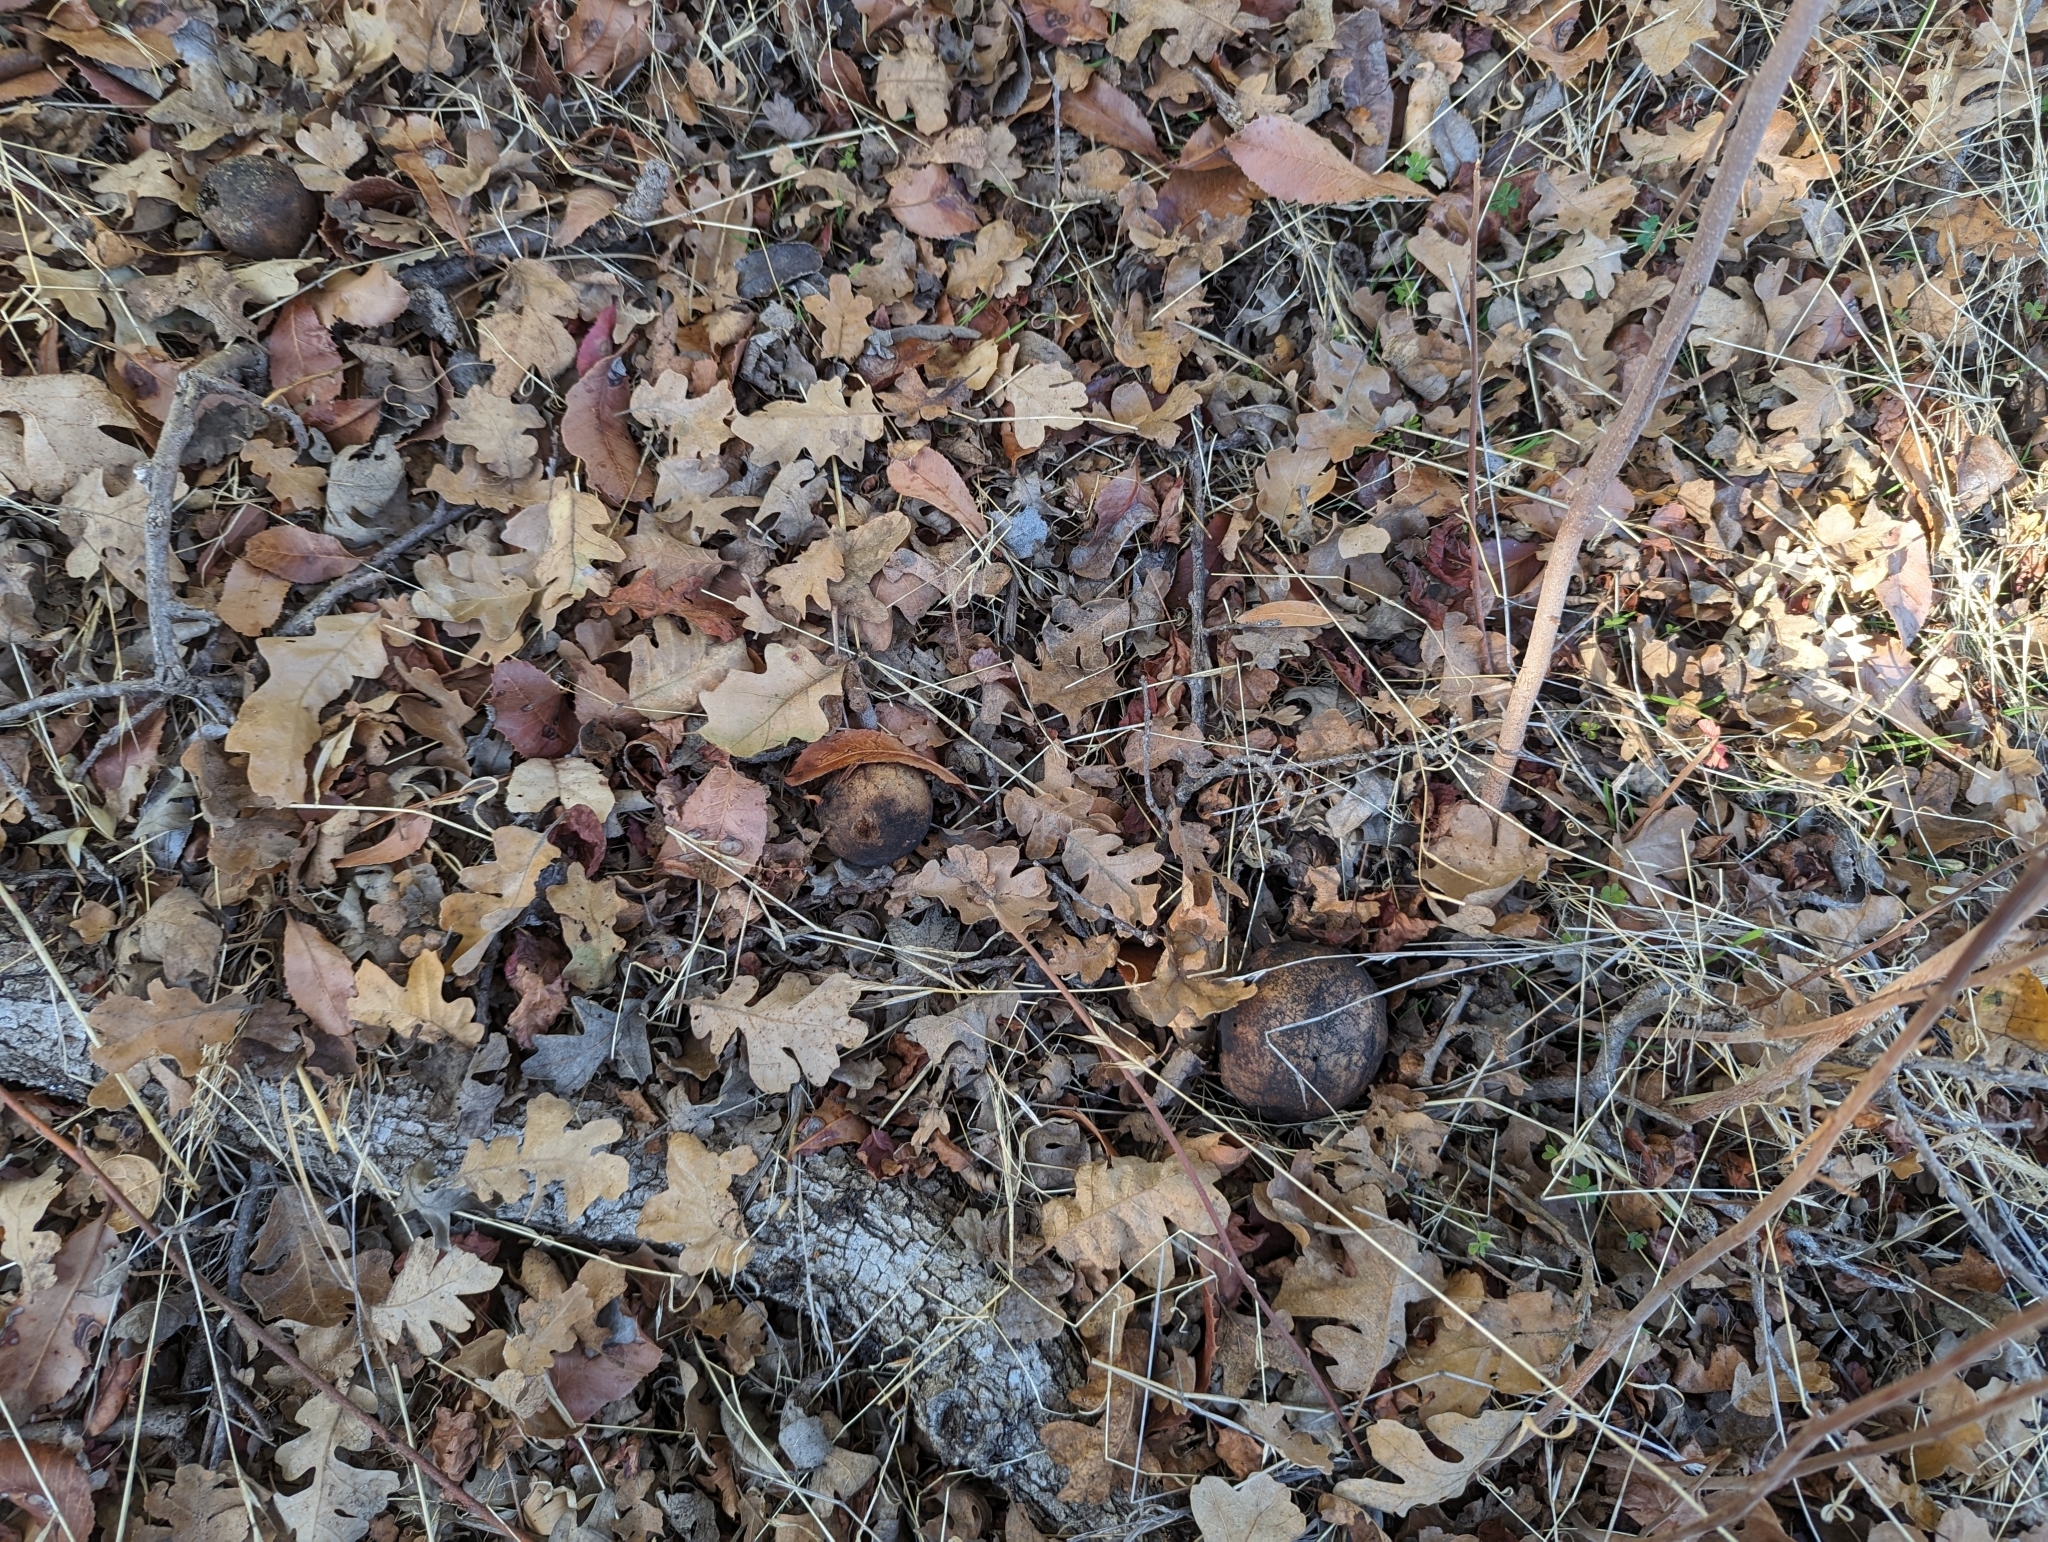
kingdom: Animalia
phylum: Arthropoda
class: Insecta
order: Hymenoptera
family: Cynipidae
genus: Andricus
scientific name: Andricus quercuscalifornicus
